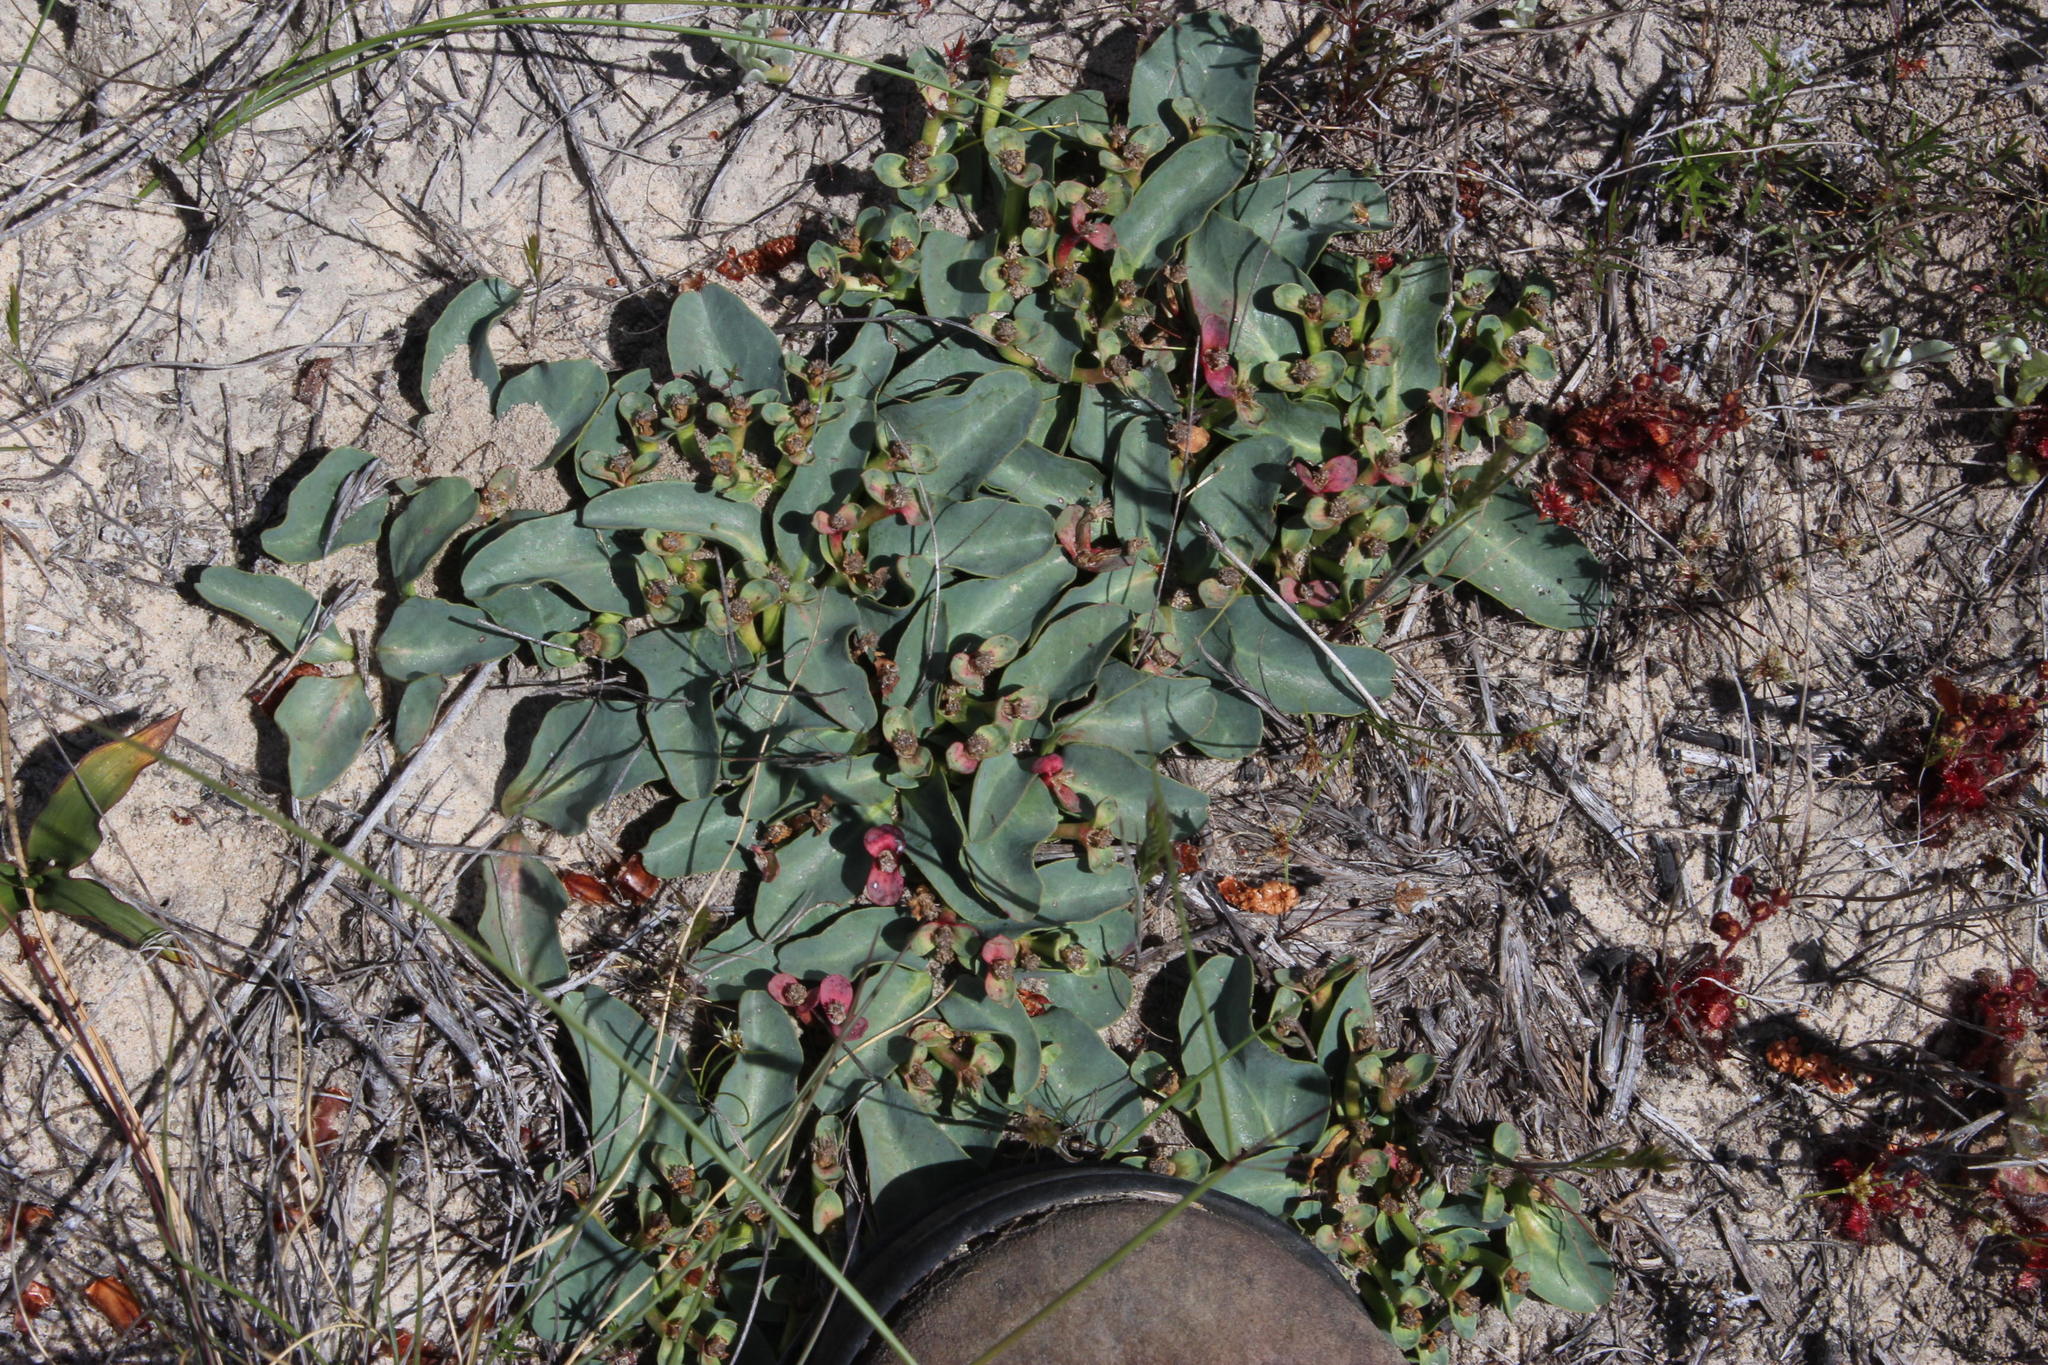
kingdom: Plantae
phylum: Tracheophyta
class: Magnoliopsida
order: Malpighiales
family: Euphorbiaceae
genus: Euphorbia
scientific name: Euphorbia tuberosa
